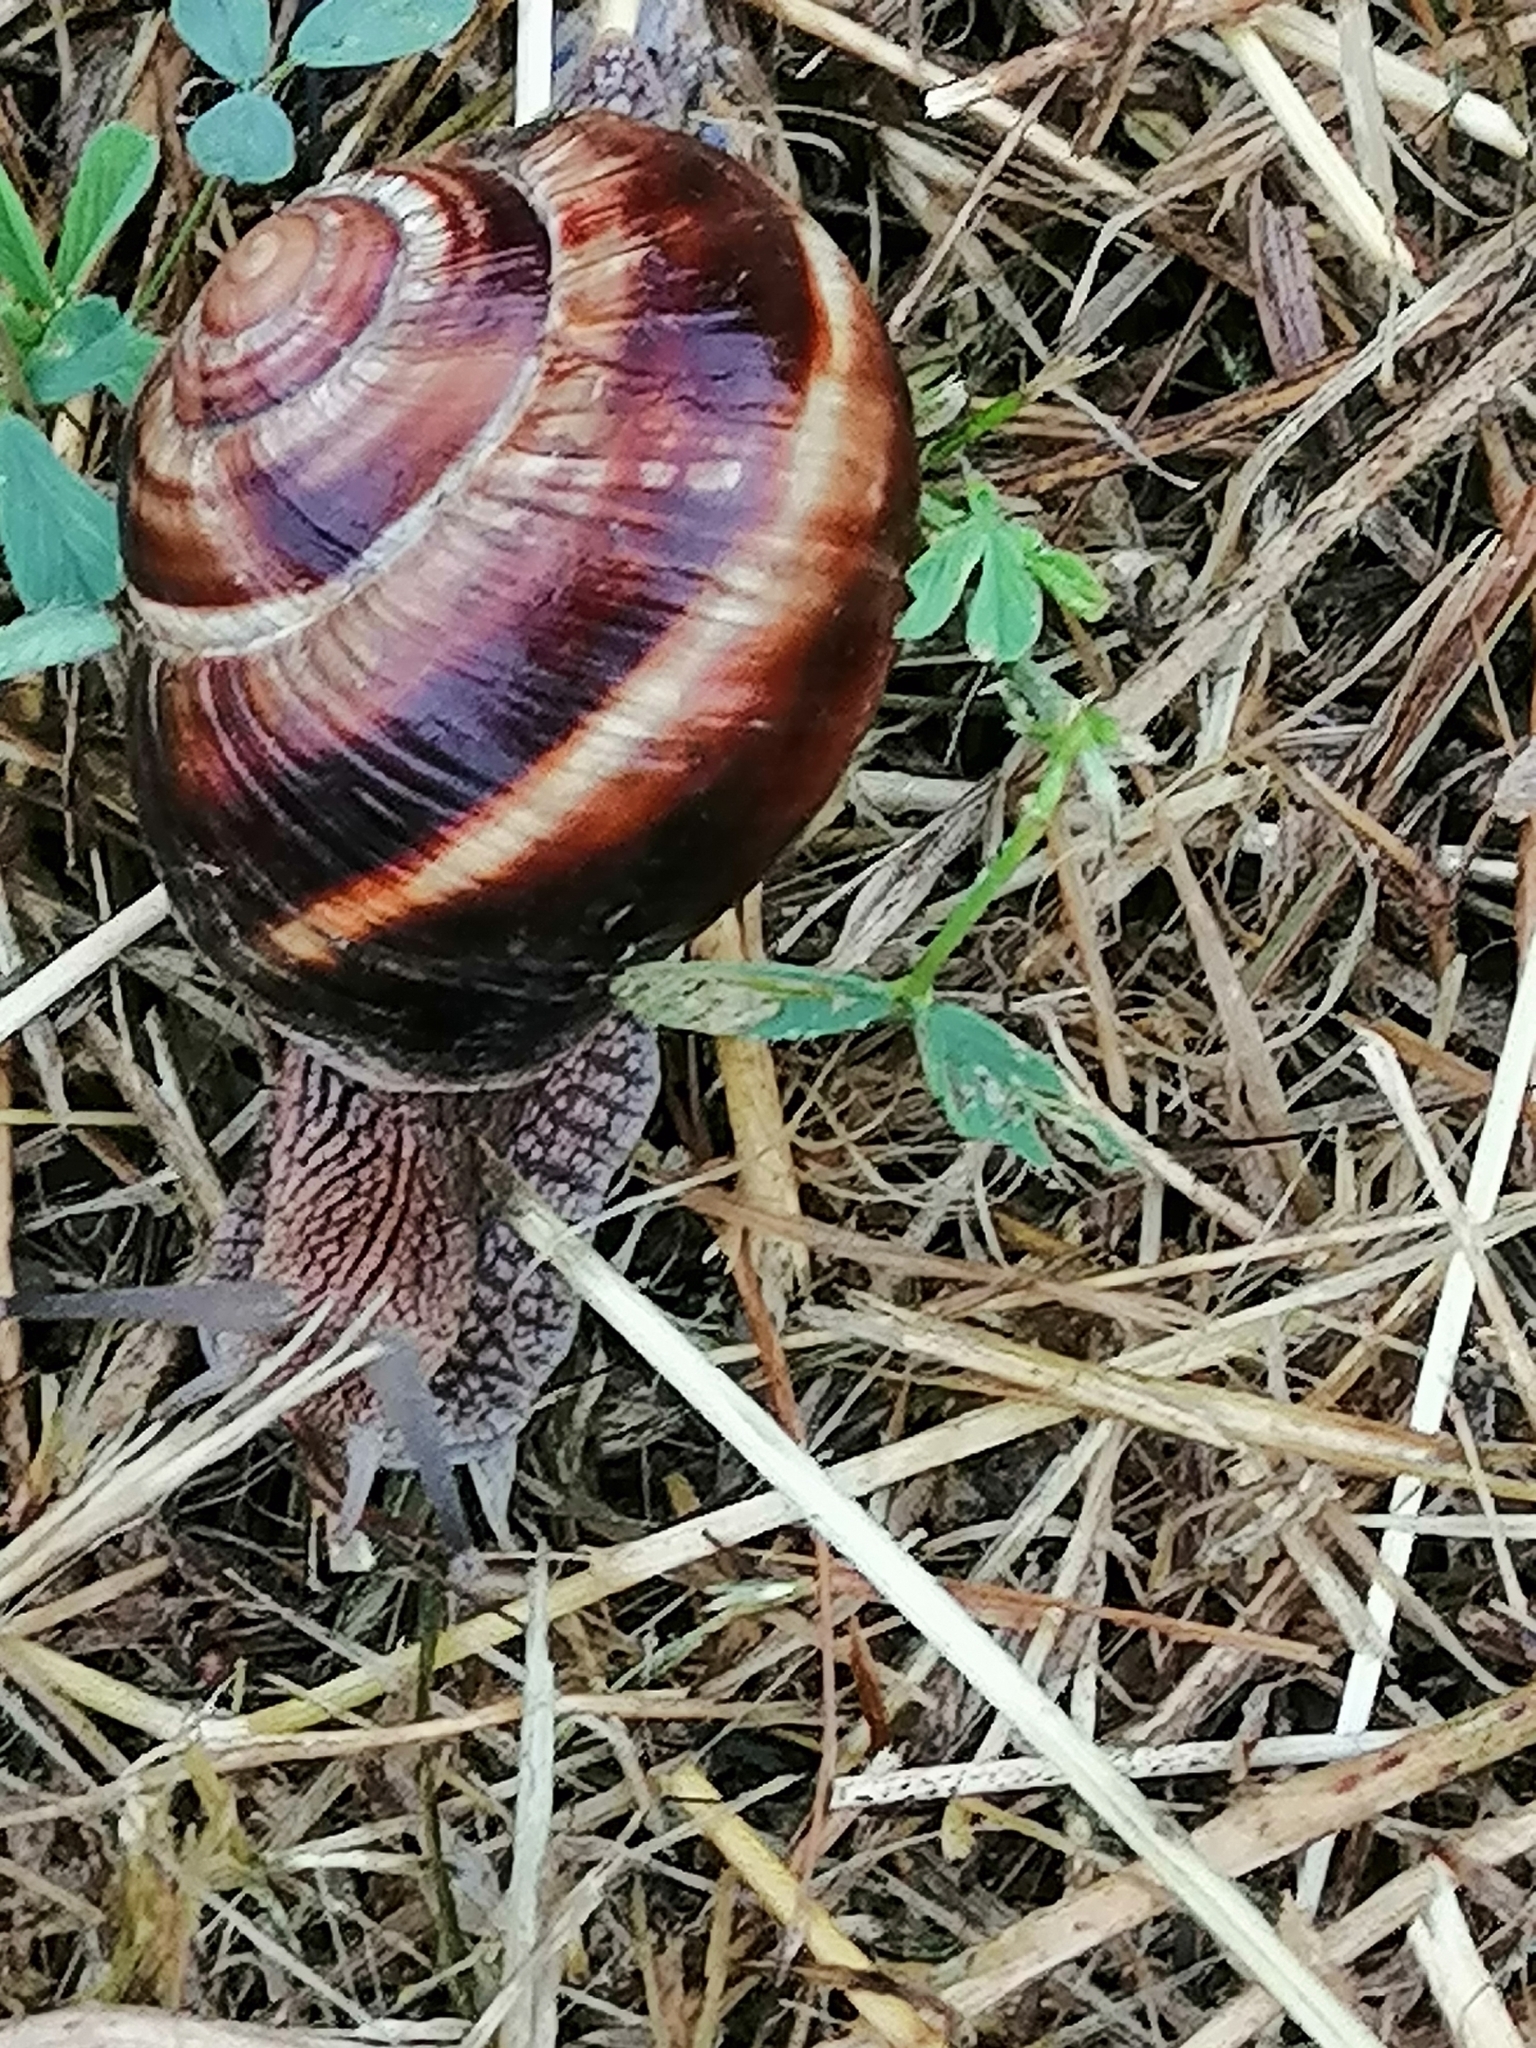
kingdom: Animalia
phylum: Mollusca
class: Gastropoda
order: Stylommatophora
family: Helicidae
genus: Helix
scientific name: Helix lucorum
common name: Turkish snail
